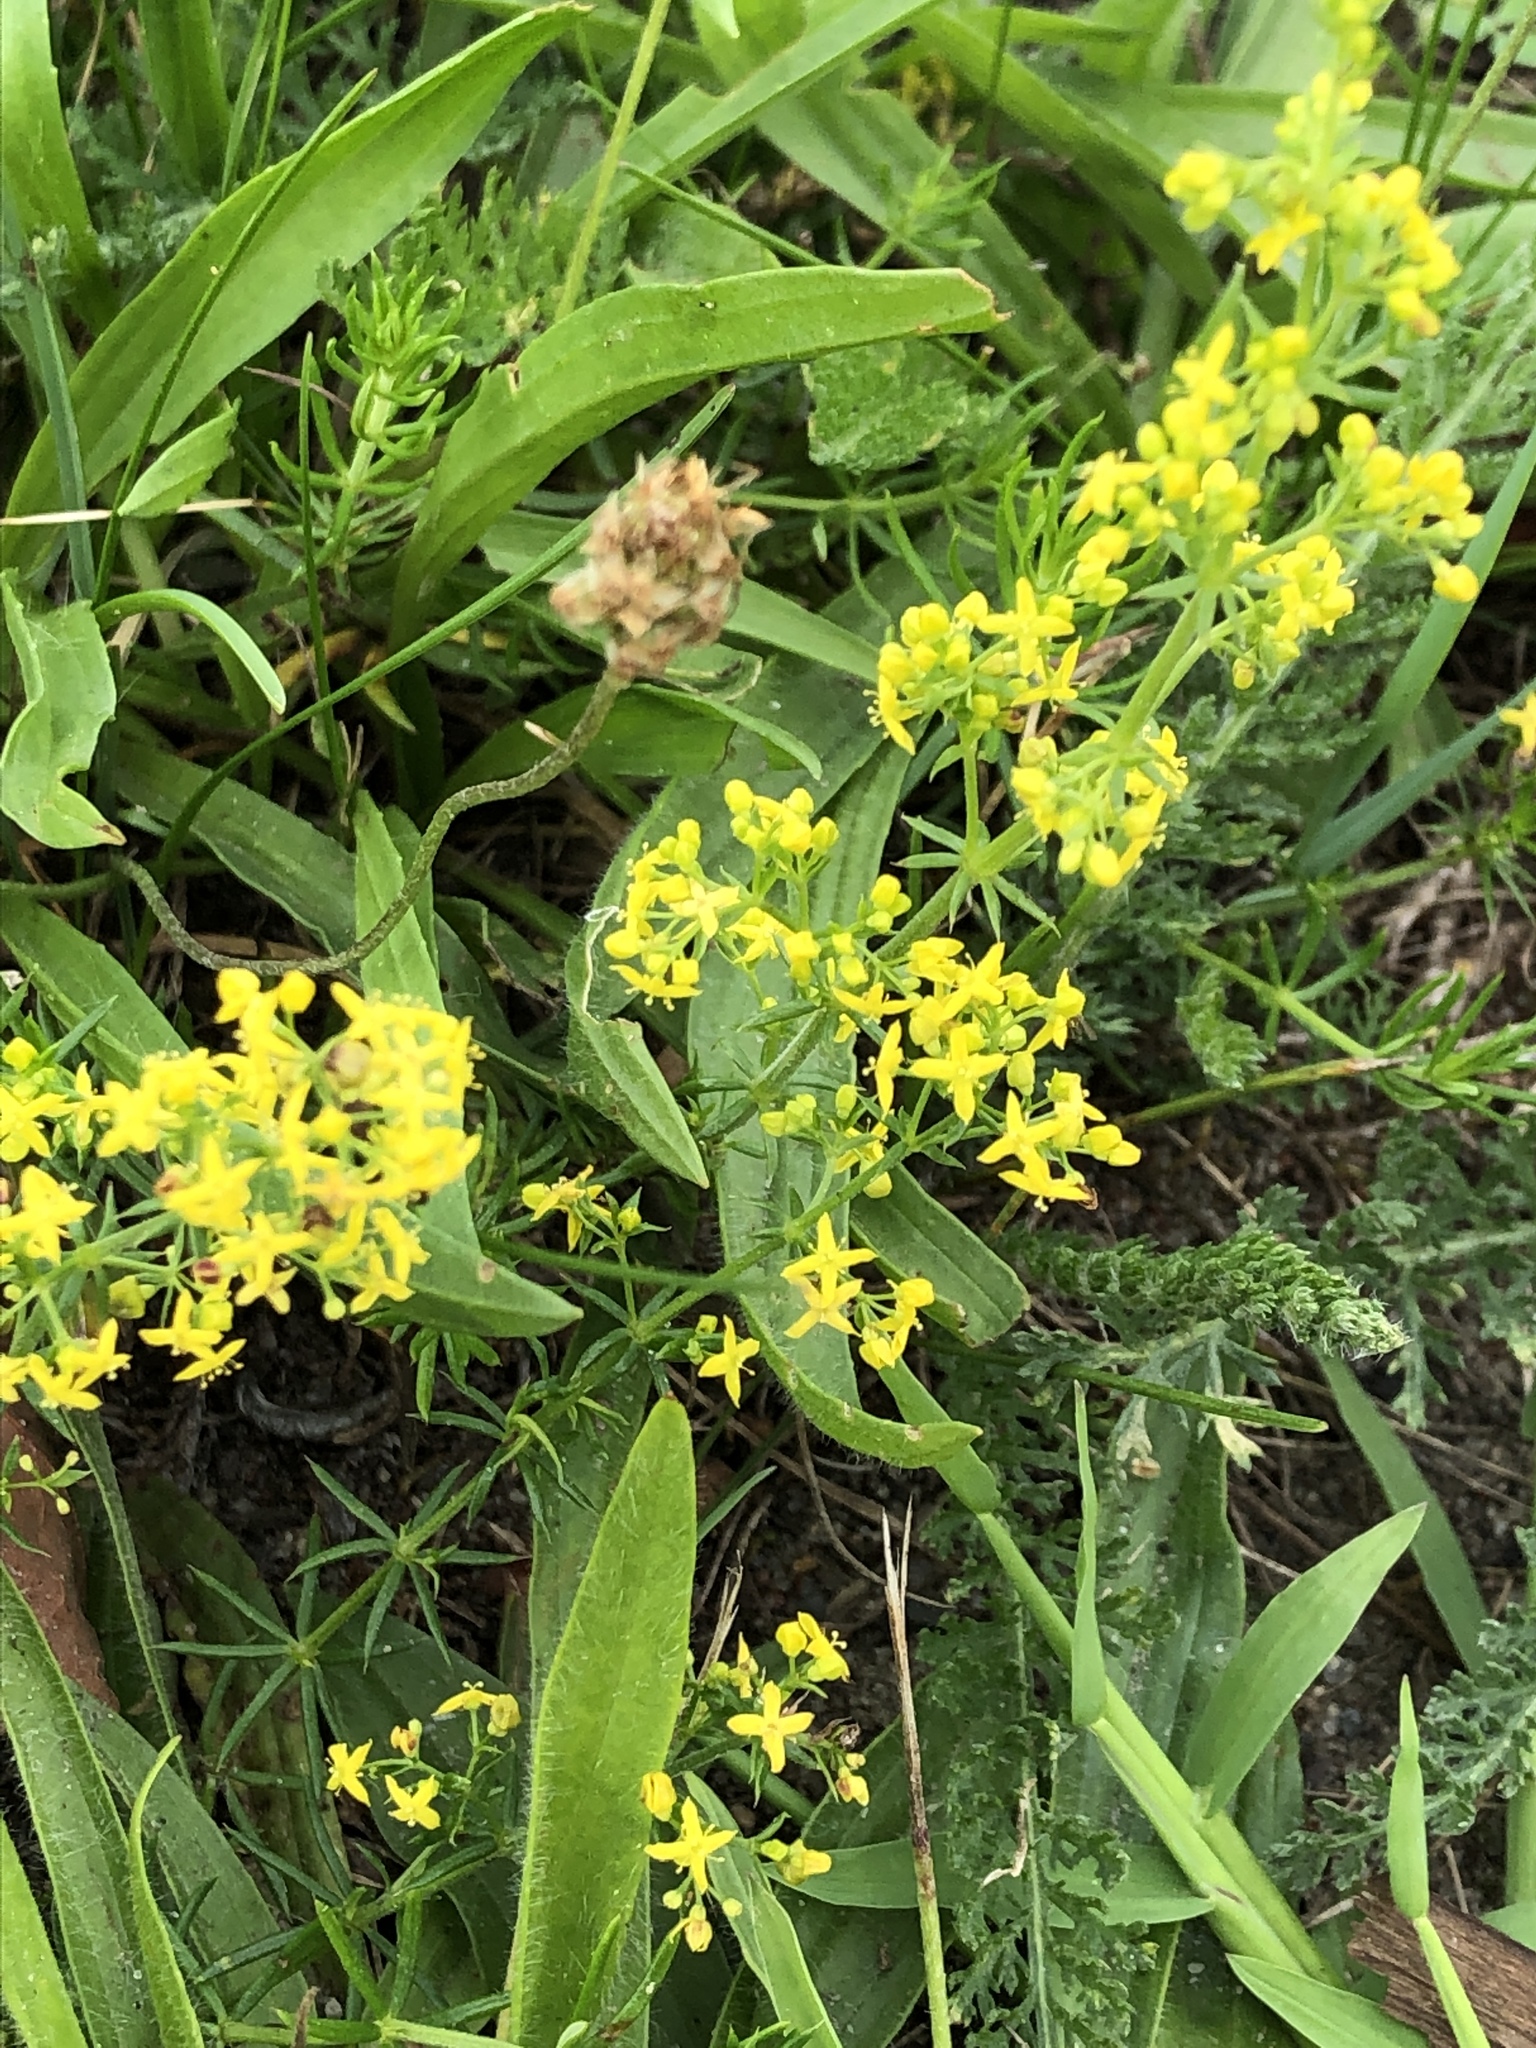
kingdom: Plantae
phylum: Tracheophyta
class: Magnoliopsida
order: Gentianales
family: Rubiaceae
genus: Galium
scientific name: Galium verum
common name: Lady's bedstraw
